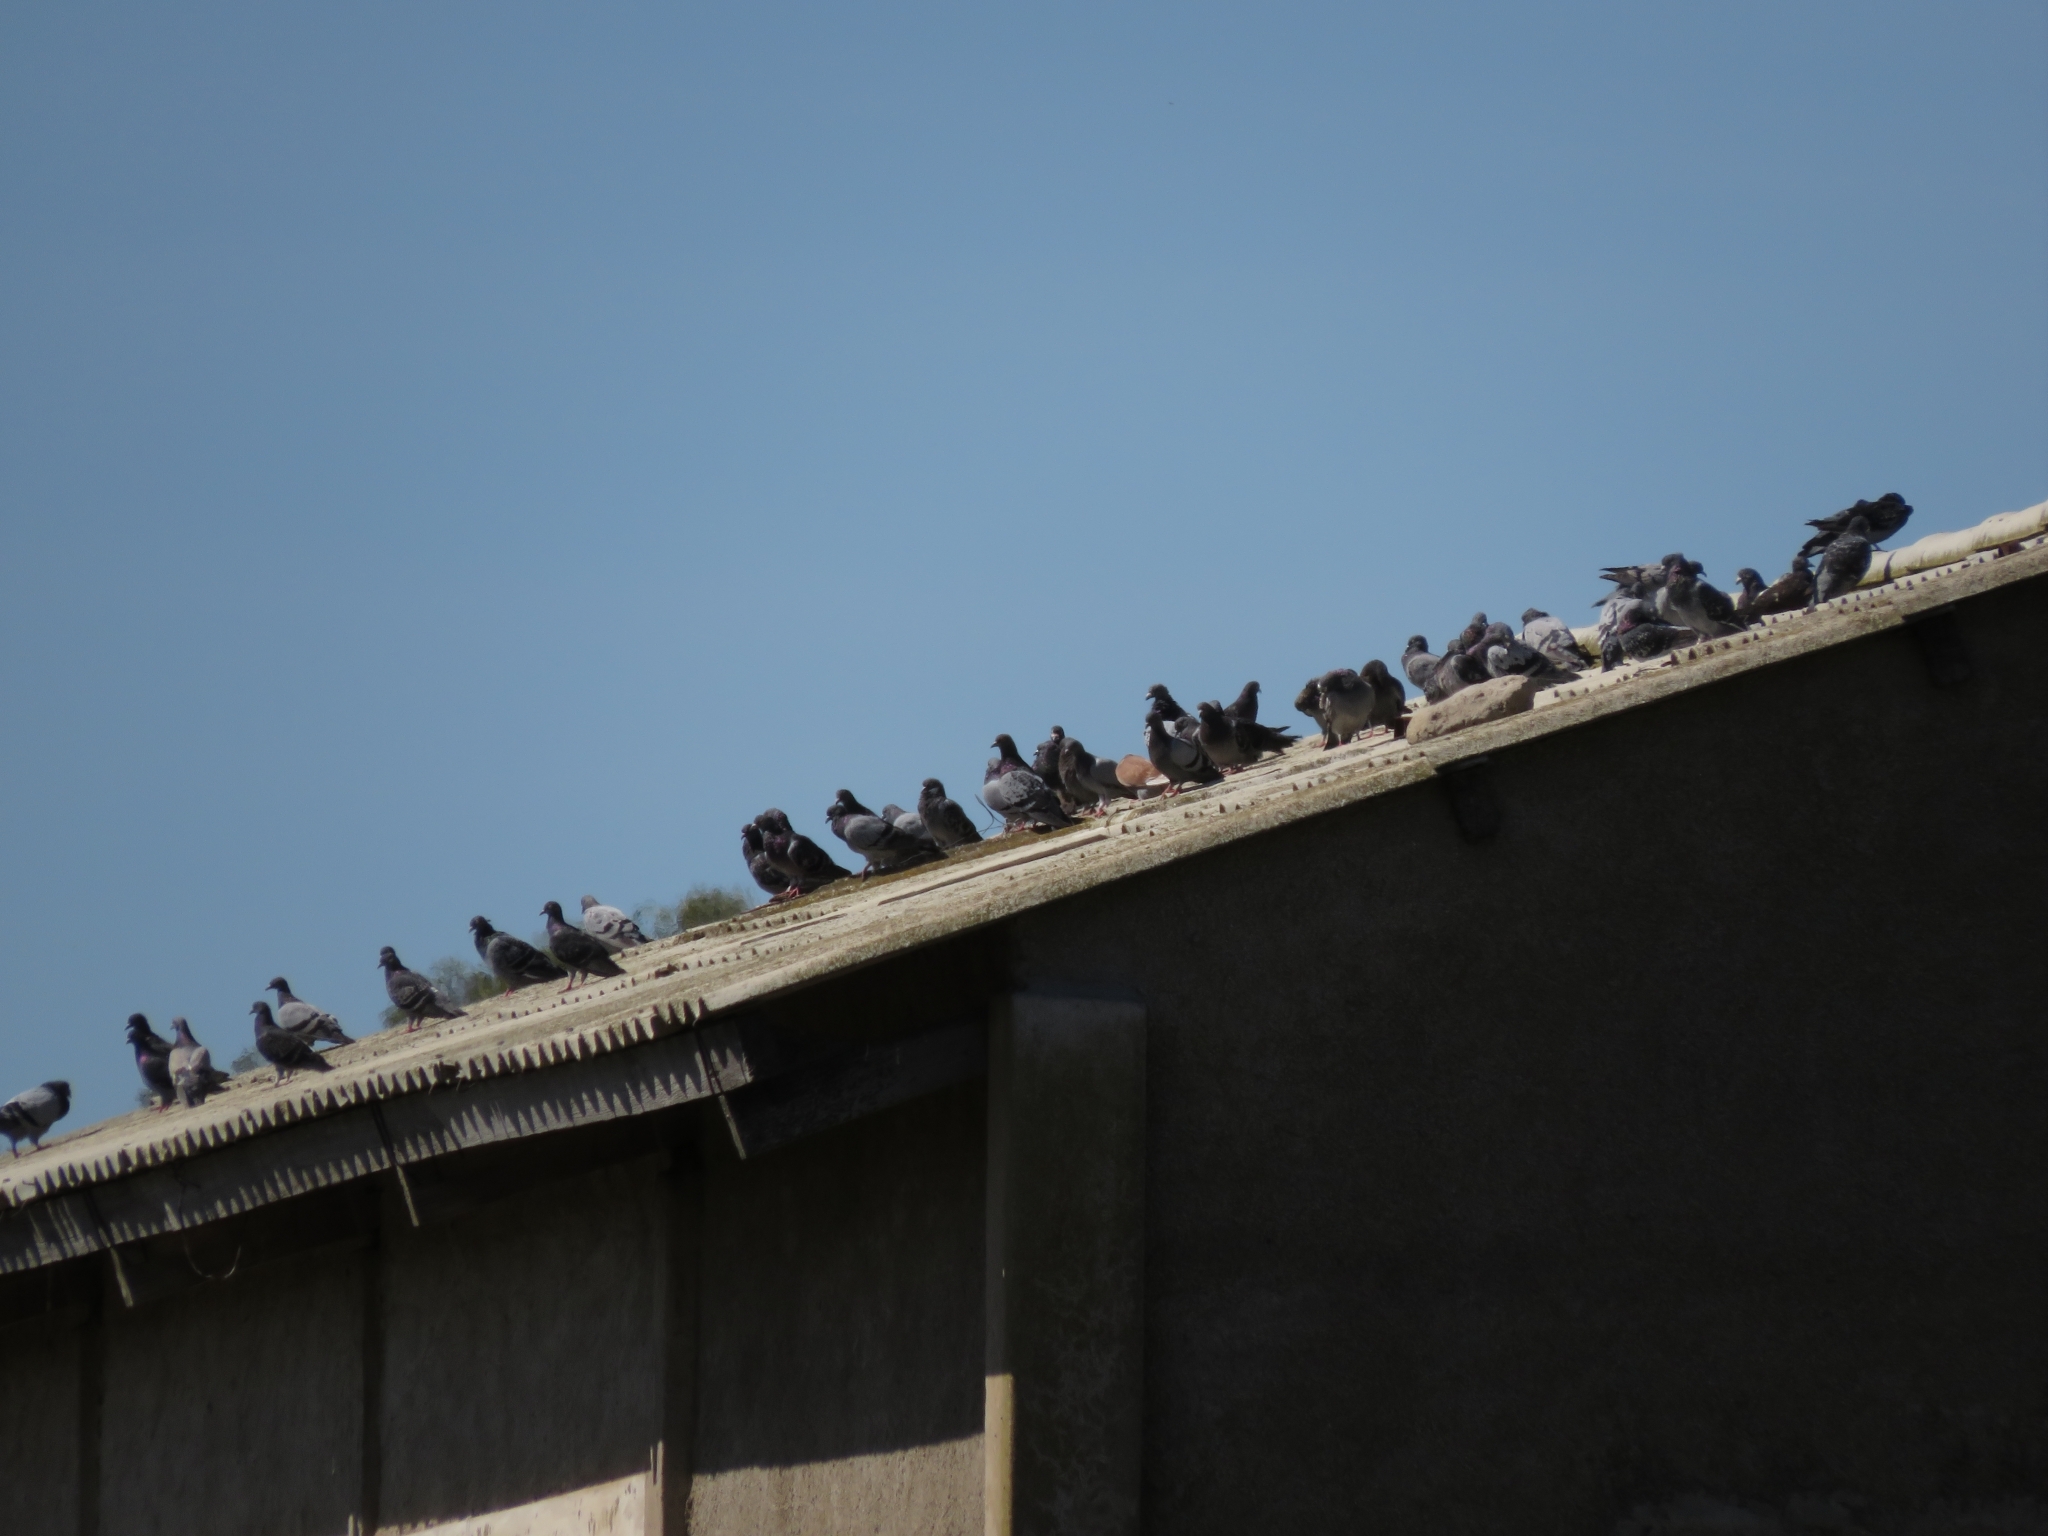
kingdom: Animalia
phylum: Chordata
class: Aves
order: Columbiformes
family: Columbidae
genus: Columba
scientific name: Columba livia
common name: Rock pigeon
